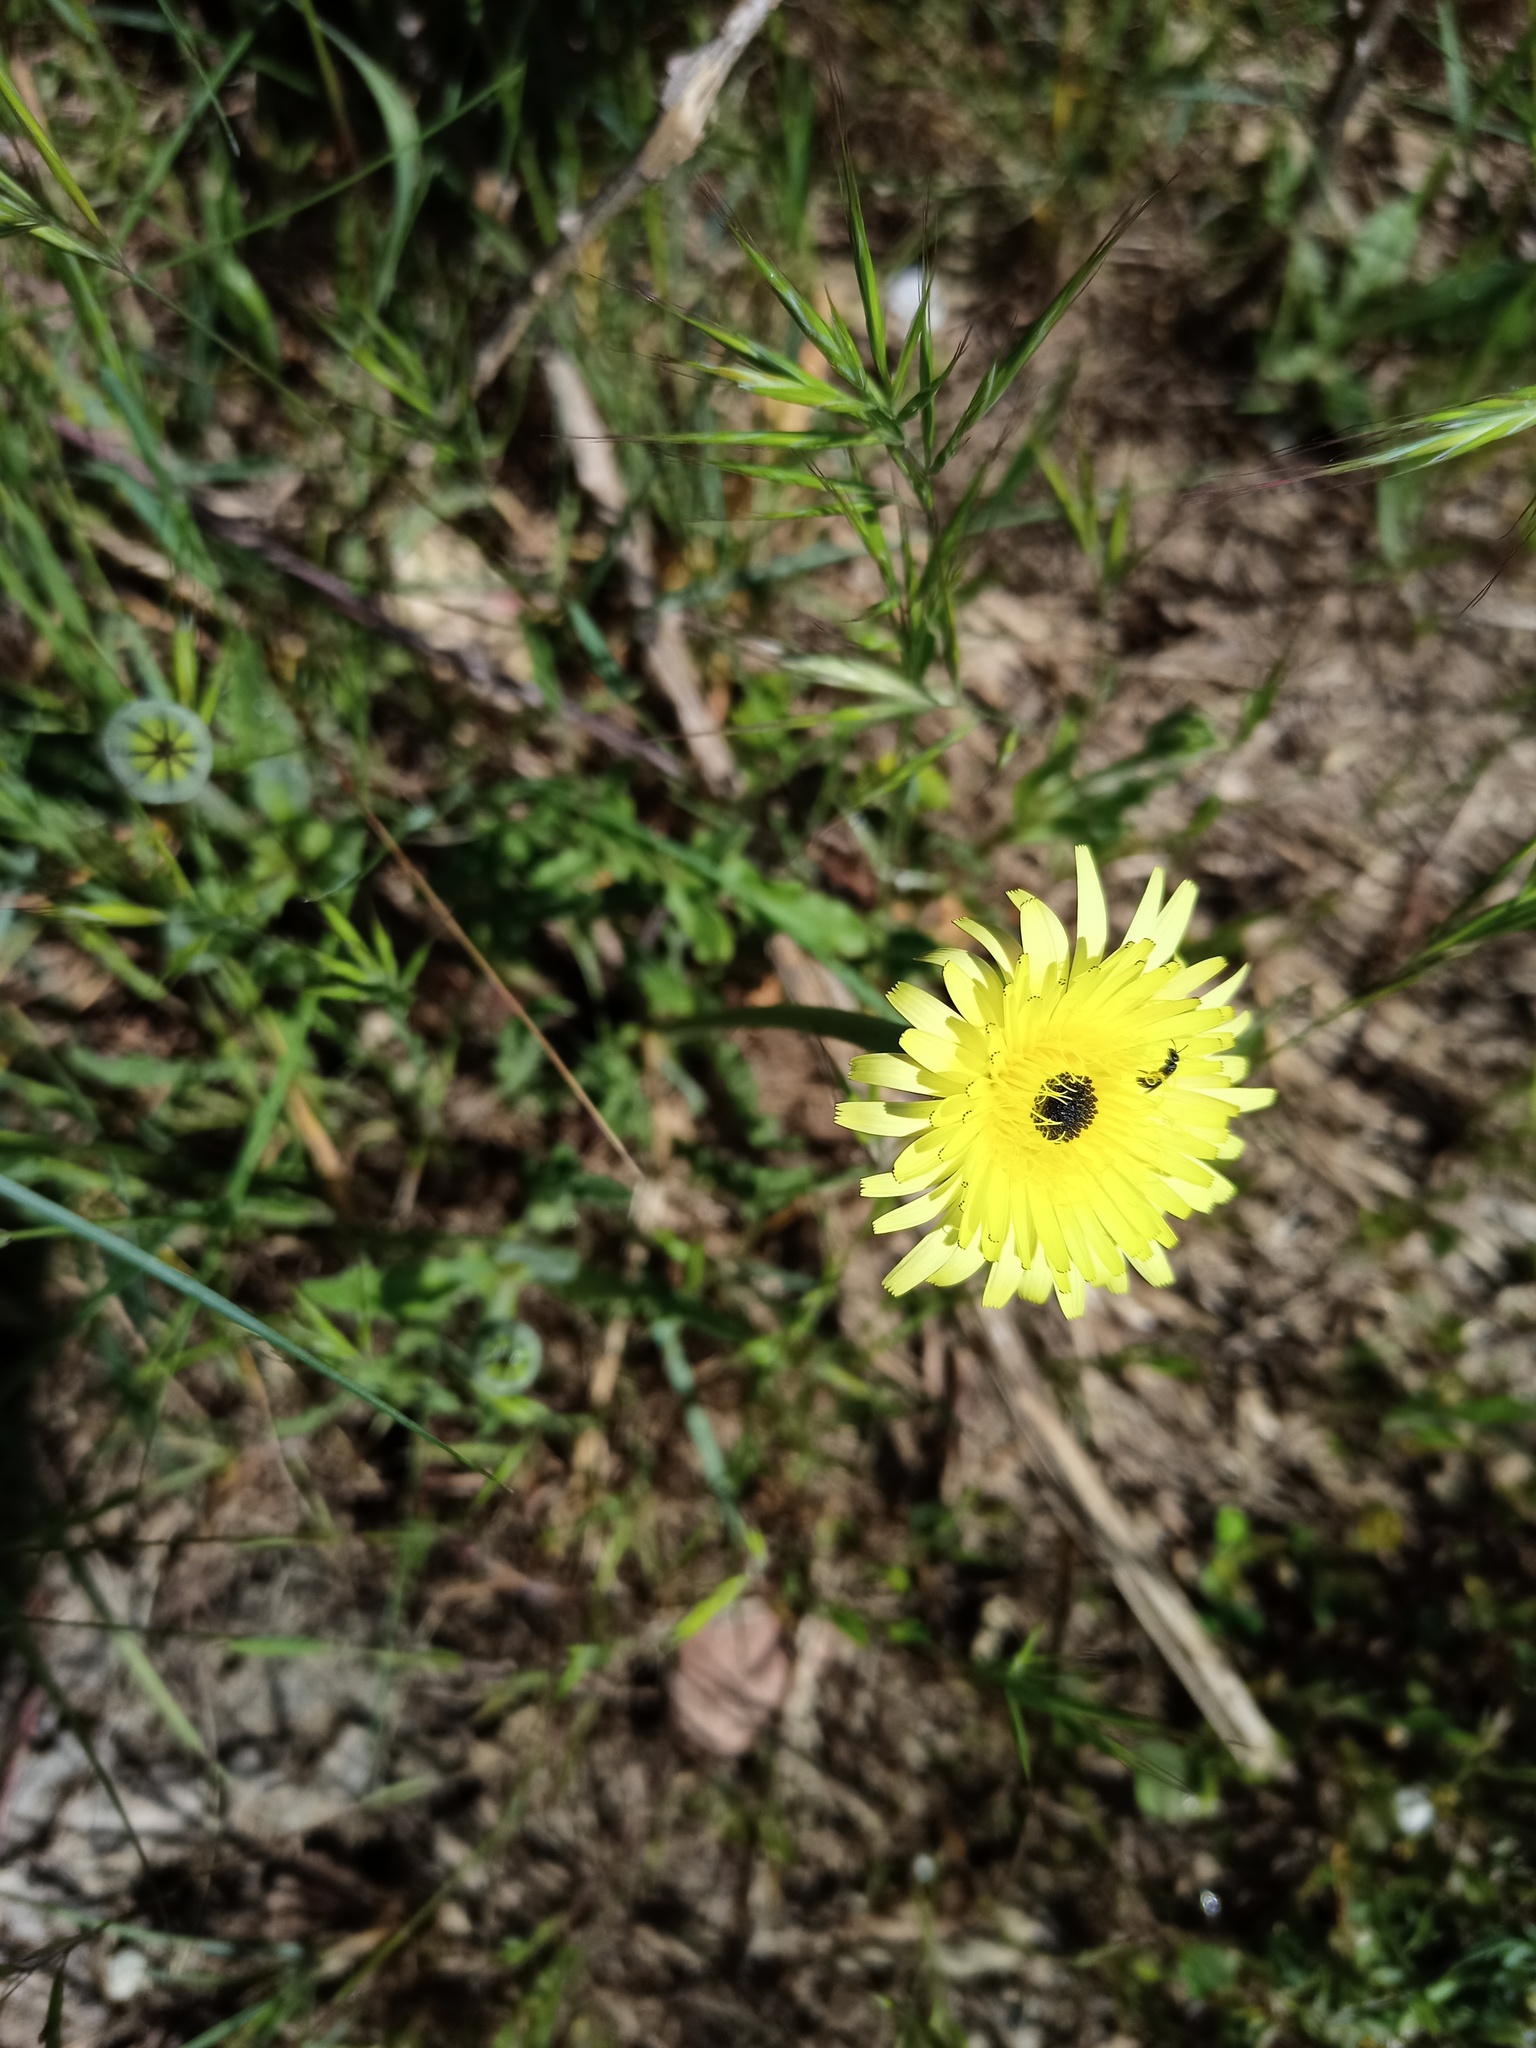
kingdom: Plantae
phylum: Tracheophyta
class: Magnoliopsida
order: Asterales
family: Asteraceae
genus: Urospermum
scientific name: Urospermum dalechampii
